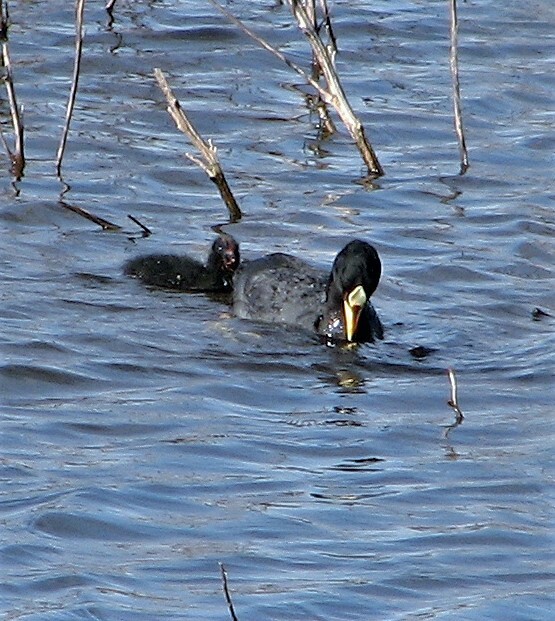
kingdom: Animalia
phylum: Chordata
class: Aves
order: Gruiformes
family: Rallidae
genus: Fulica
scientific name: Fulica armillata
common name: Red-gartered coot
